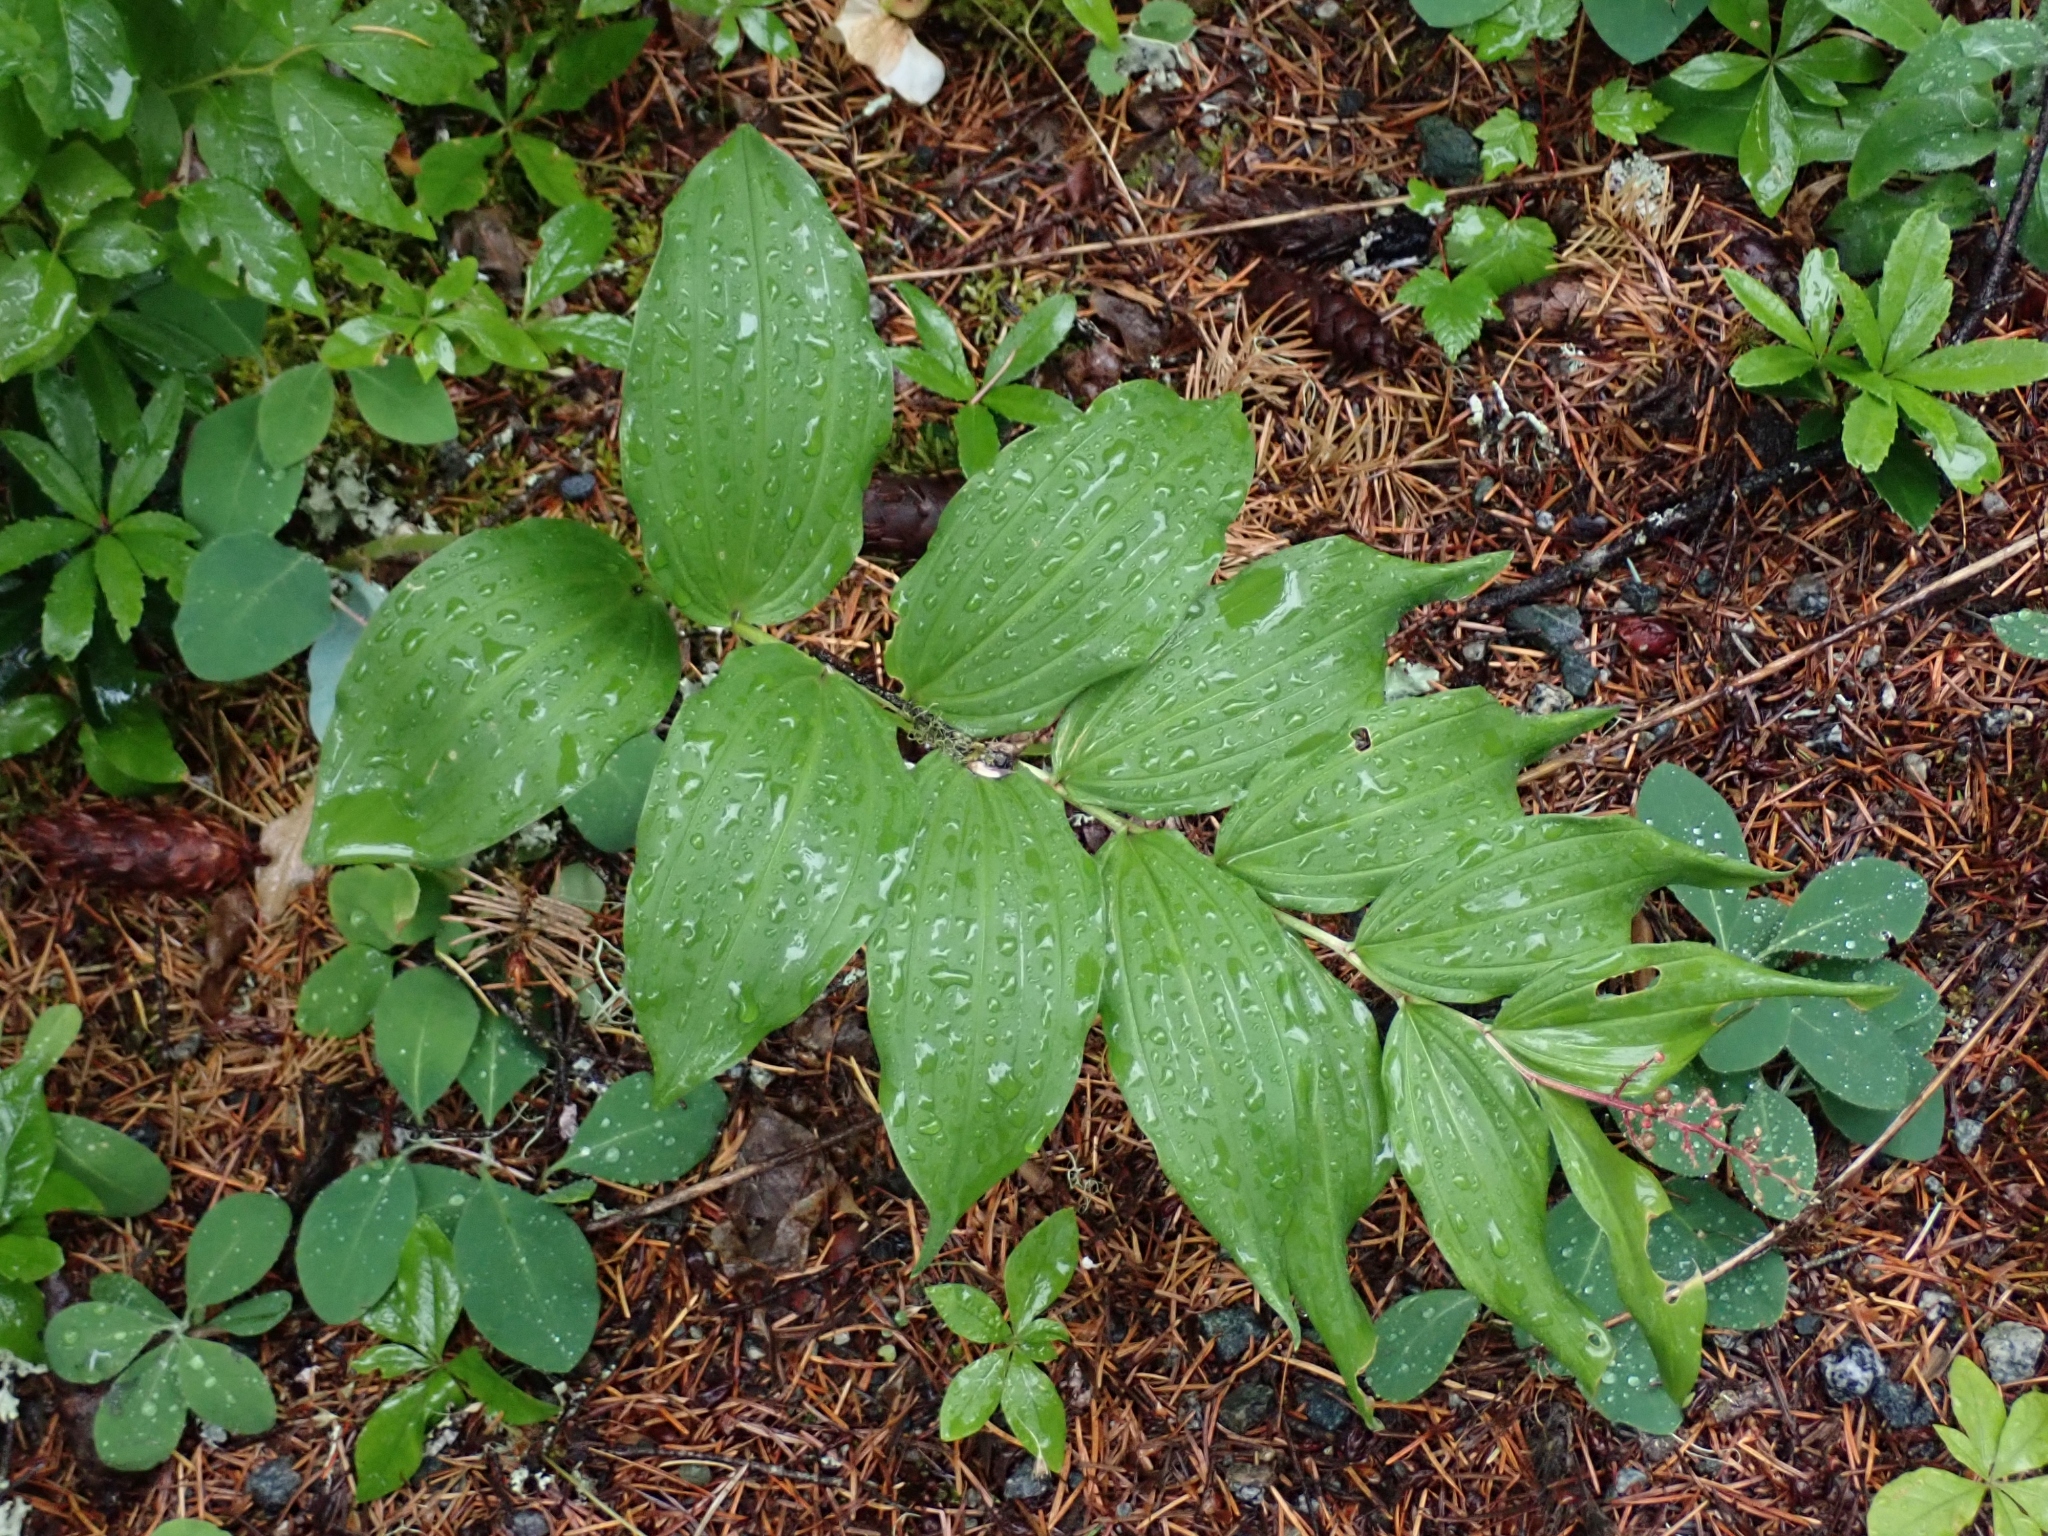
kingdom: Plantae
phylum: Tracheophyta
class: Liliopsida
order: Asparagales
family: Asparagaceae
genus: Maianthemum
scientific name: Maianthemum racemosum
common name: False spikenard
